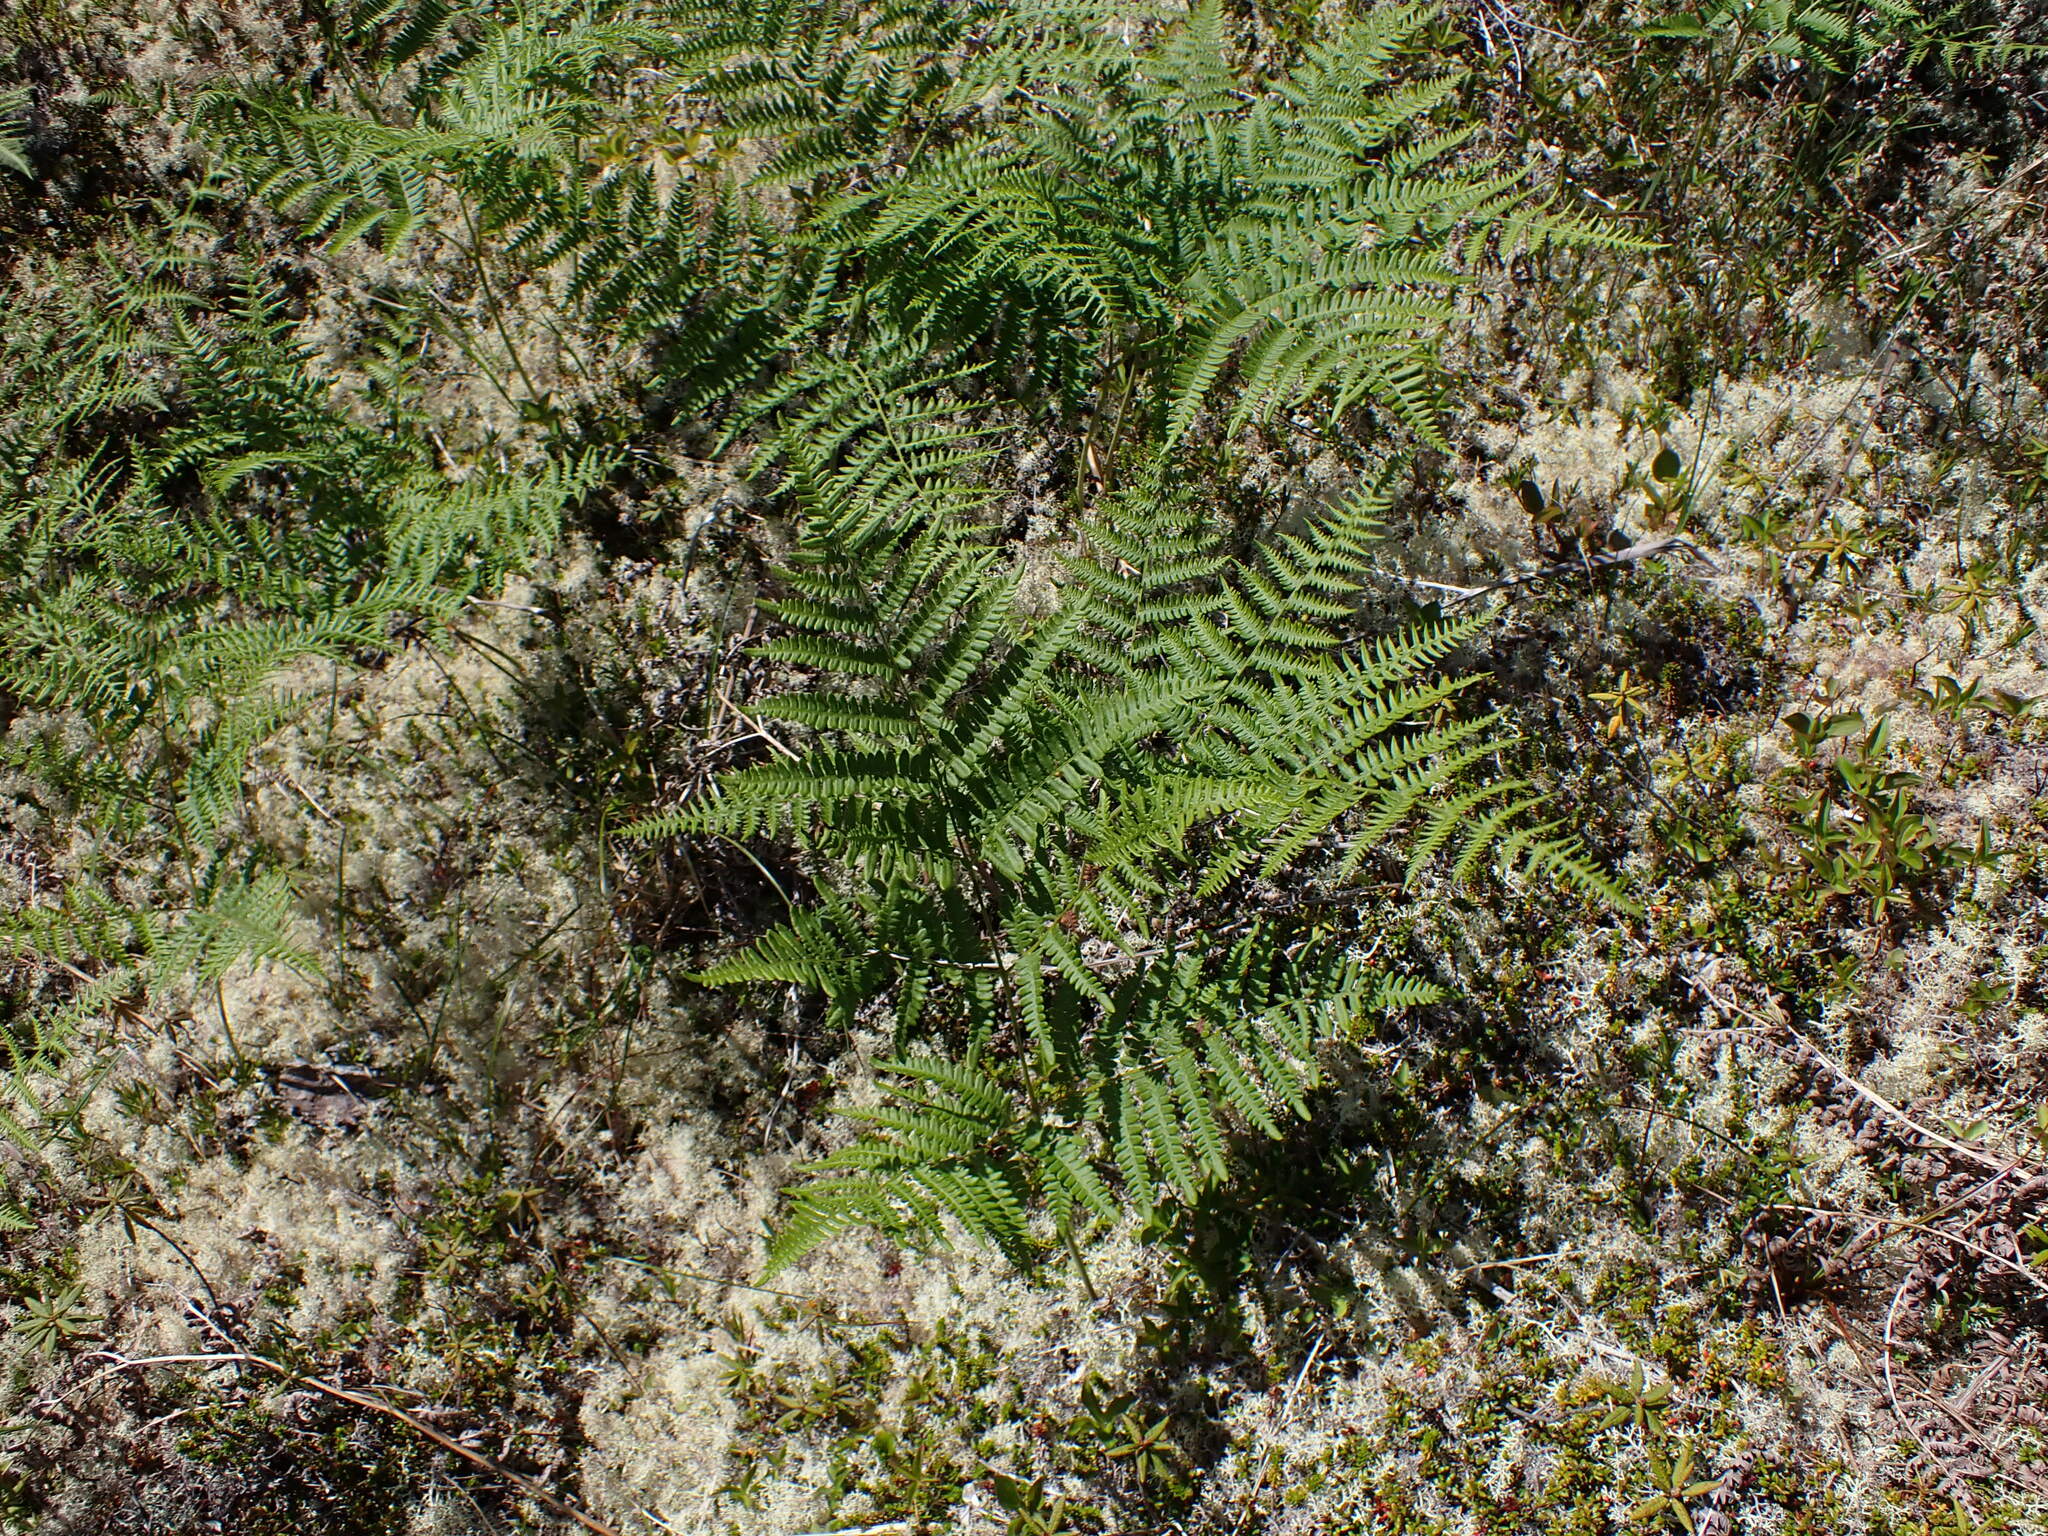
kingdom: Plantae
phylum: Tracheophyta
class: Polypodiopsida
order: Polypodiales
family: Dennstaedtiaceae
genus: Pteridium
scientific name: Pteridium aquilinum
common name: Bracken
